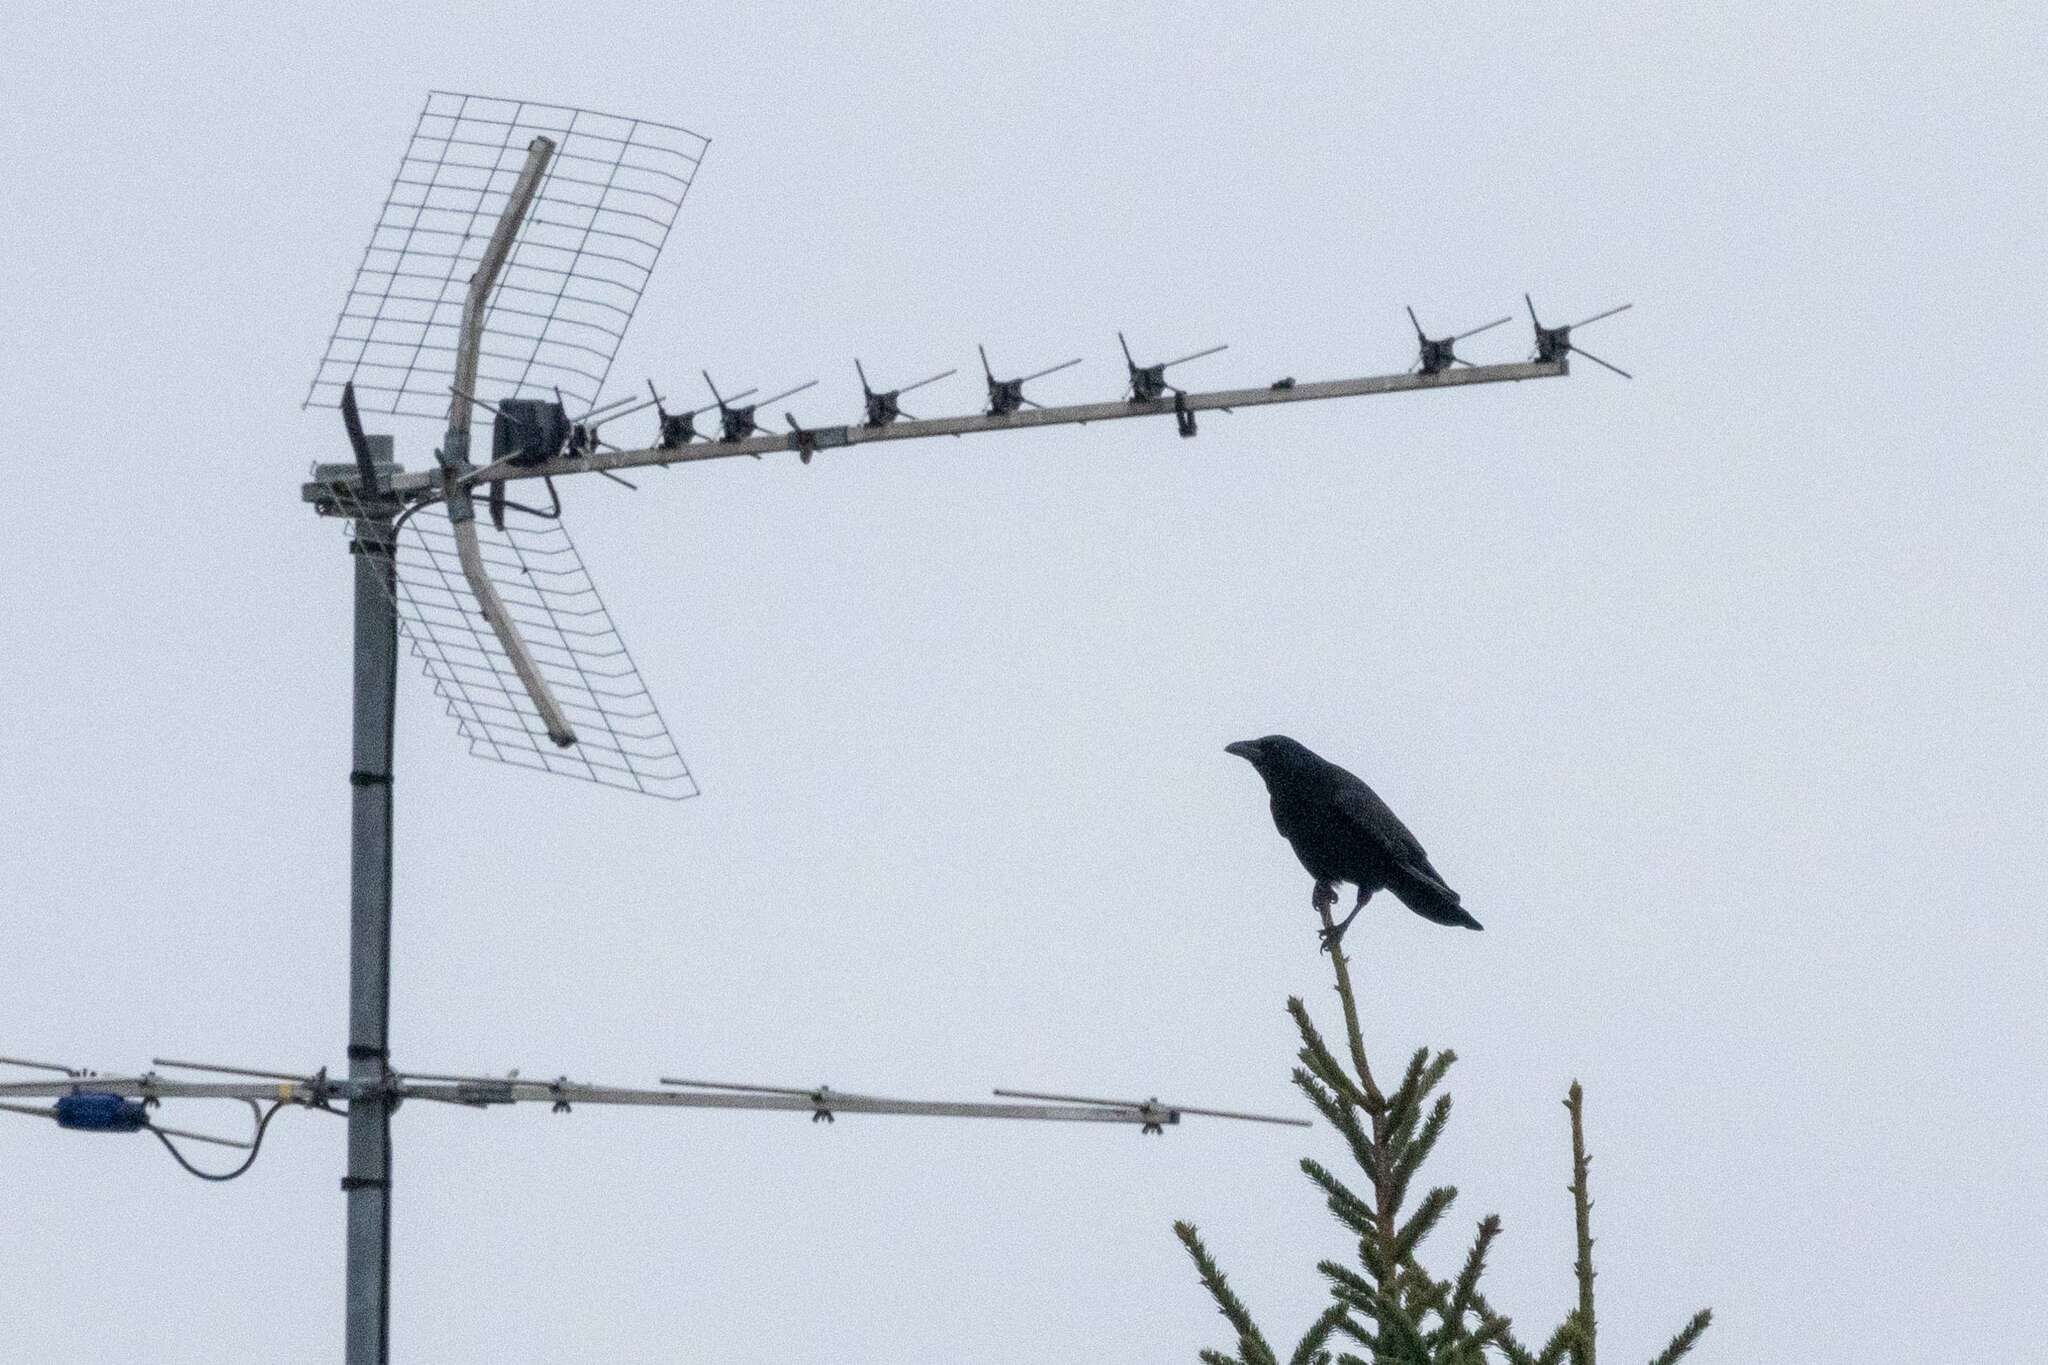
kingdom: Animalia
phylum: Chordata
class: Aves
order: Passeriformes
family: Corvidae
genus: Corvus
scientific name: Corvus corone
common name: Carrion crow
